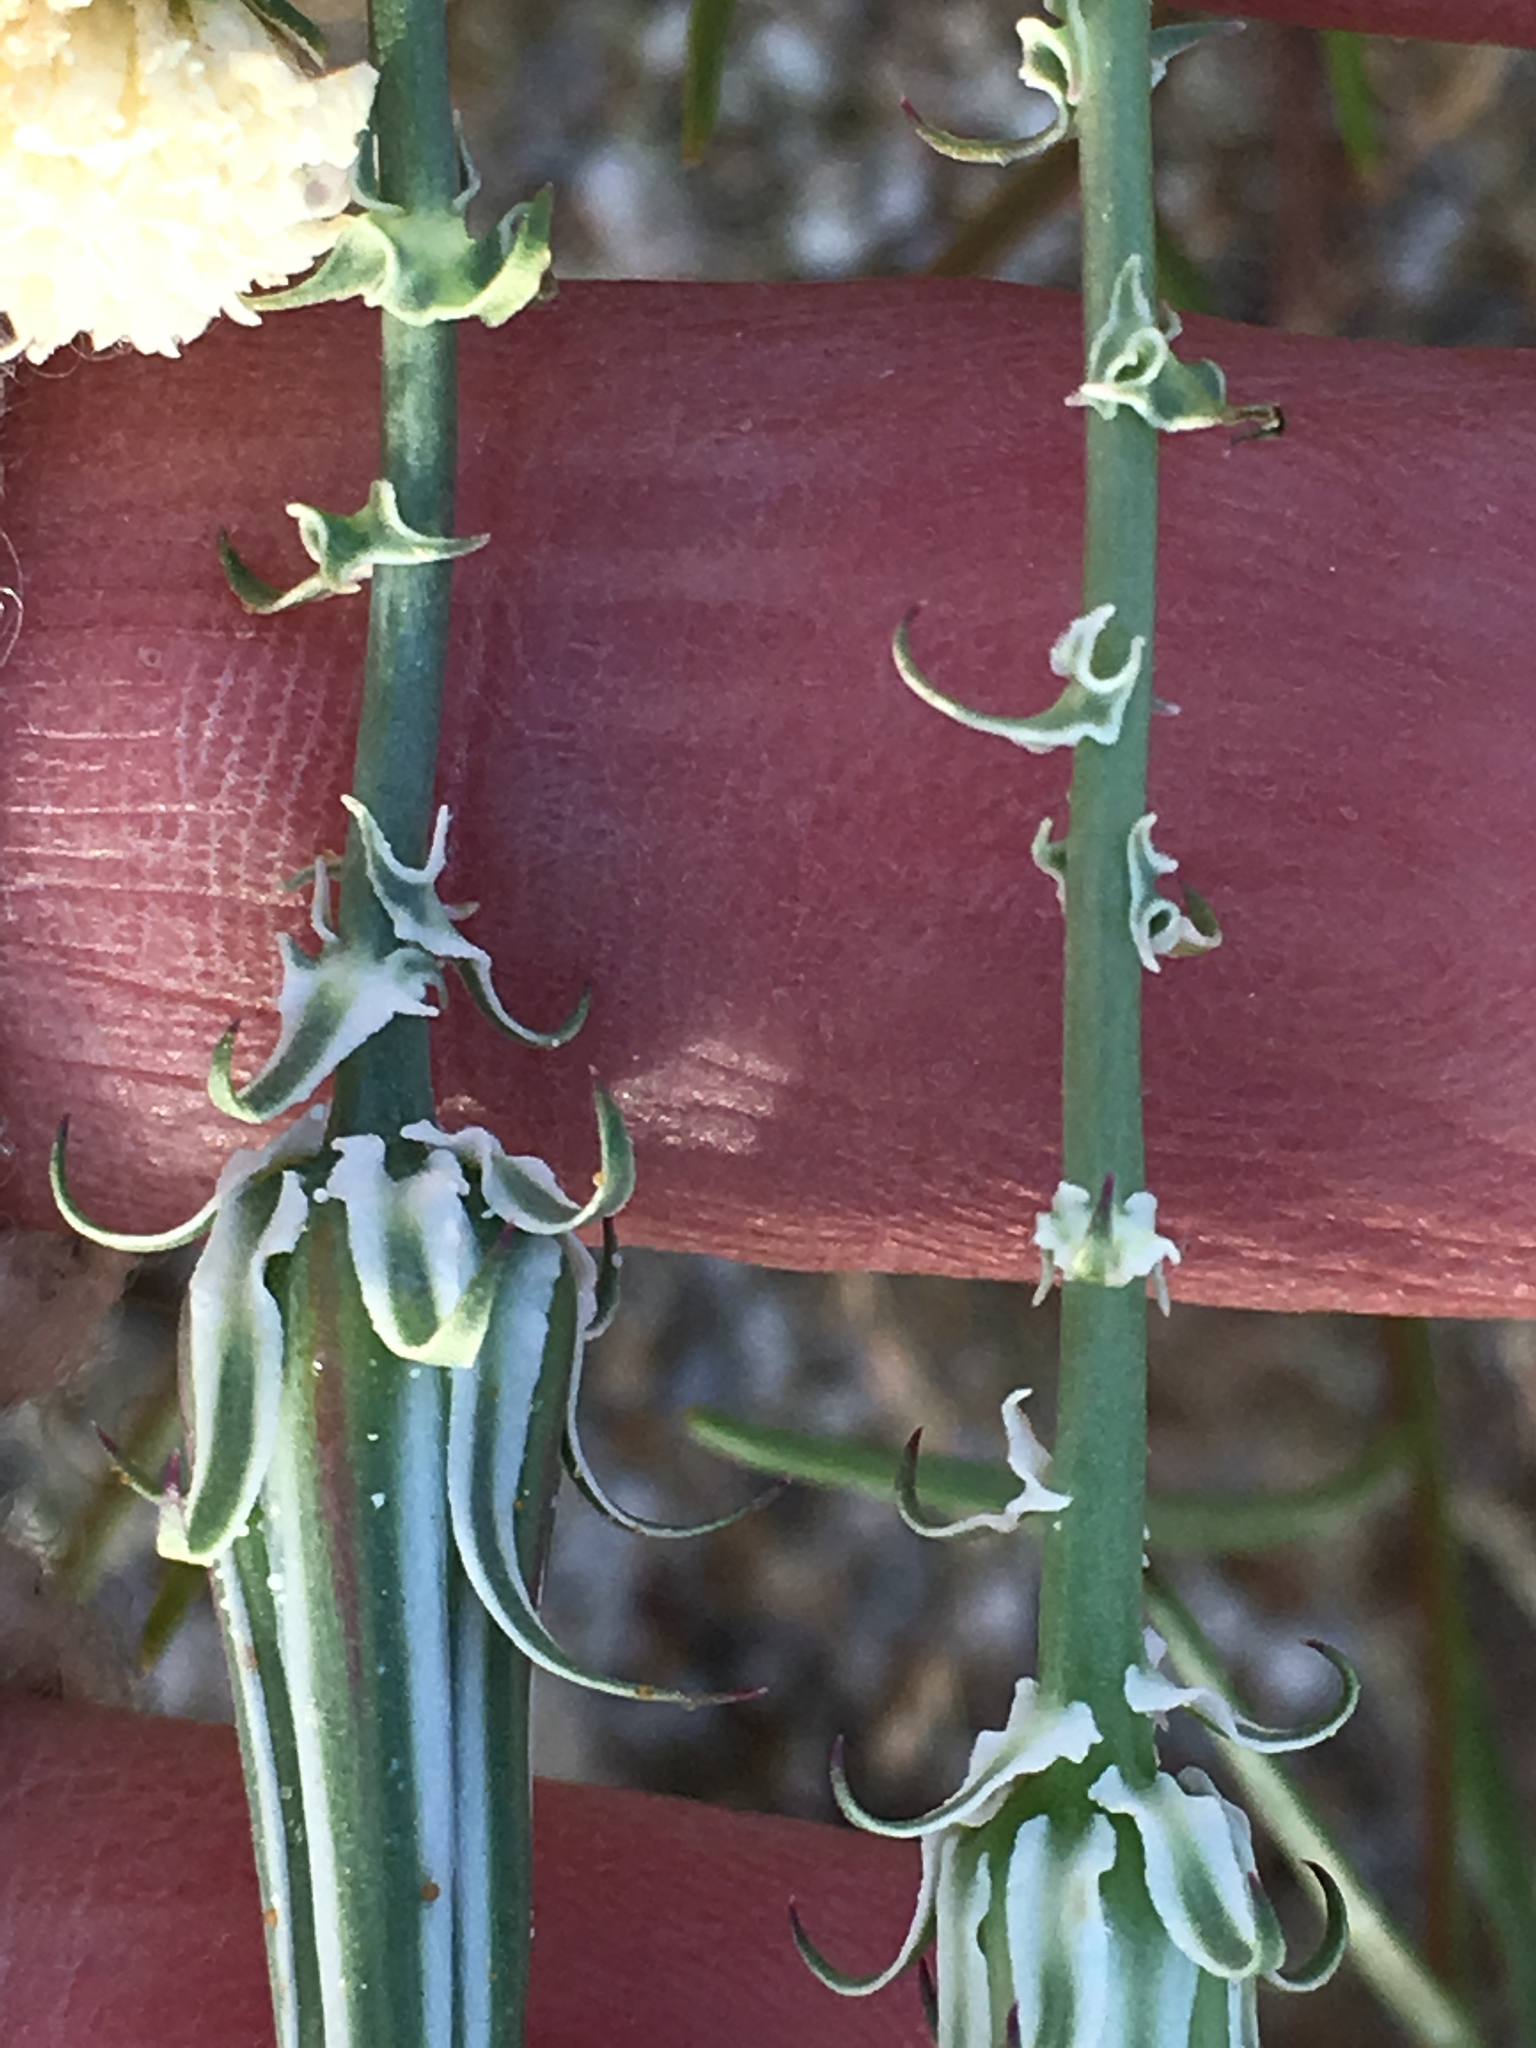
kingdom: Plantae
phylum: Tracheophyta
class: Magnoliopsida
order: Asterales
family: Asteraceae
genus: Rafinesquia
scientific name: Rafinesquia neomexicana
